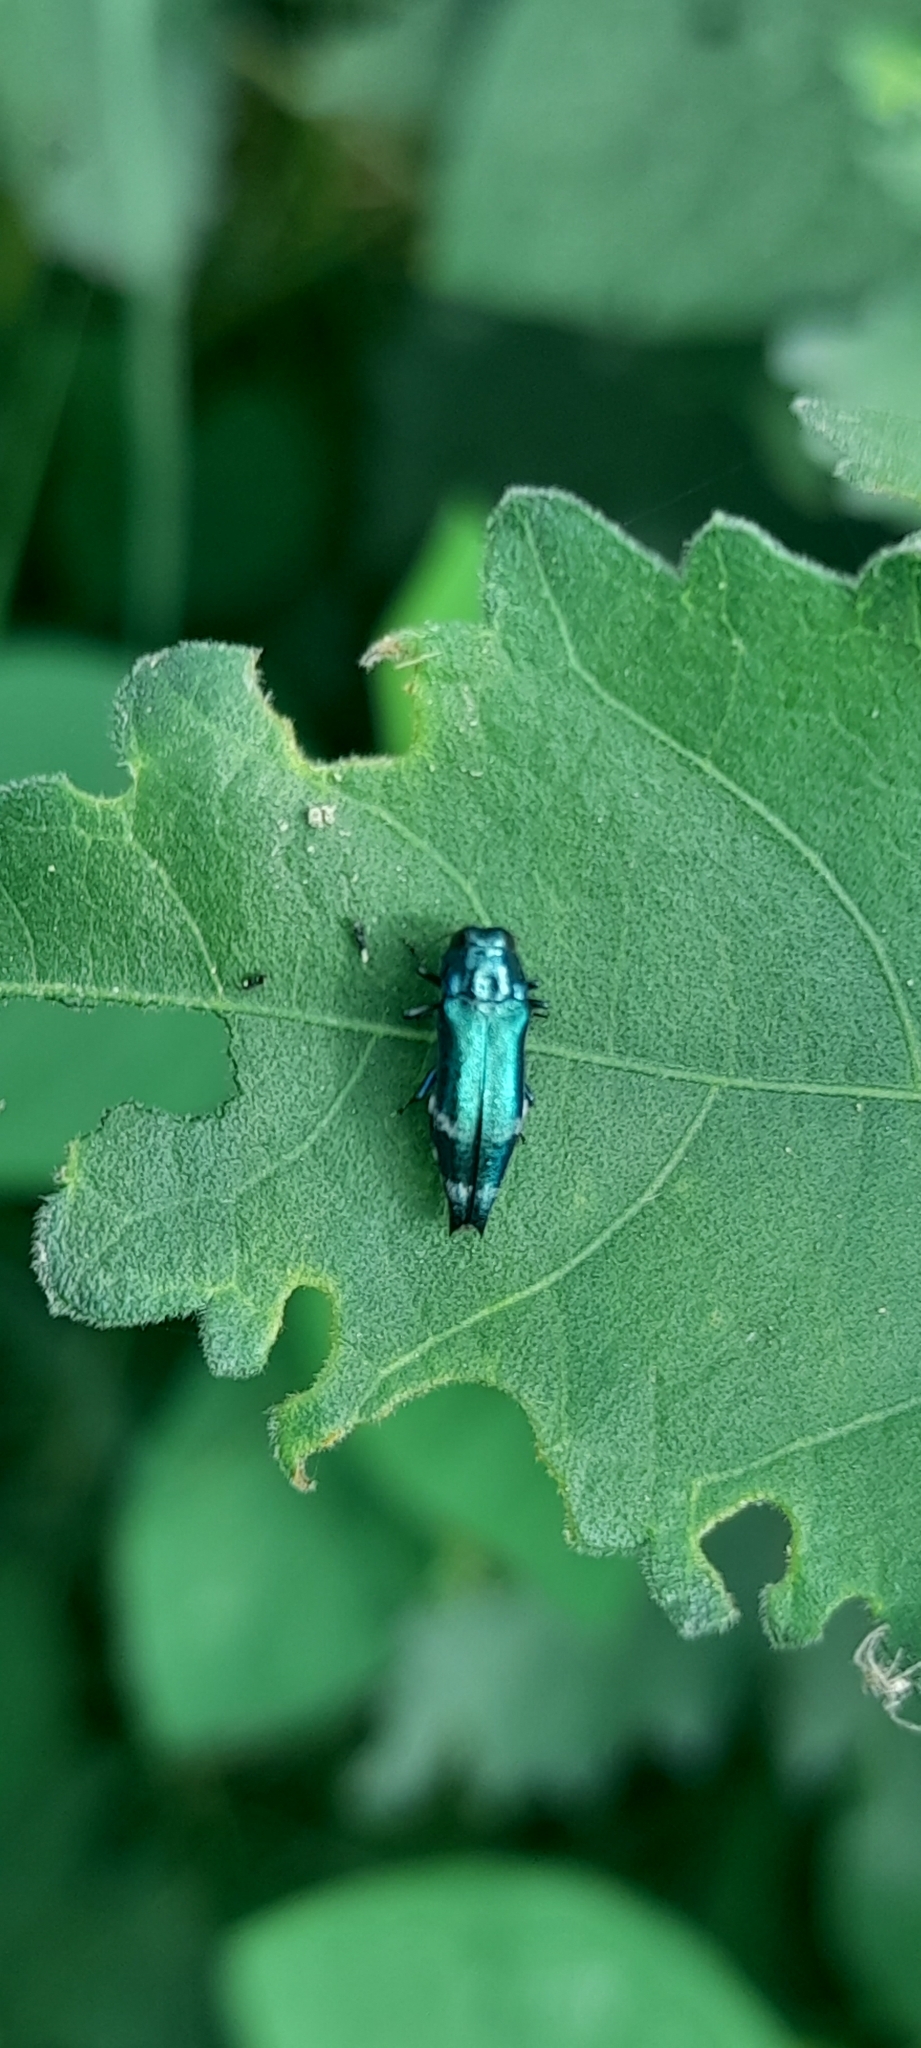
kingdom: Animalia
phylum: Arthropoda
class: Insecta
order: Coleoptera
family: Buprestidae
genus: Agrilus
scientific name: Agrilus acutus
